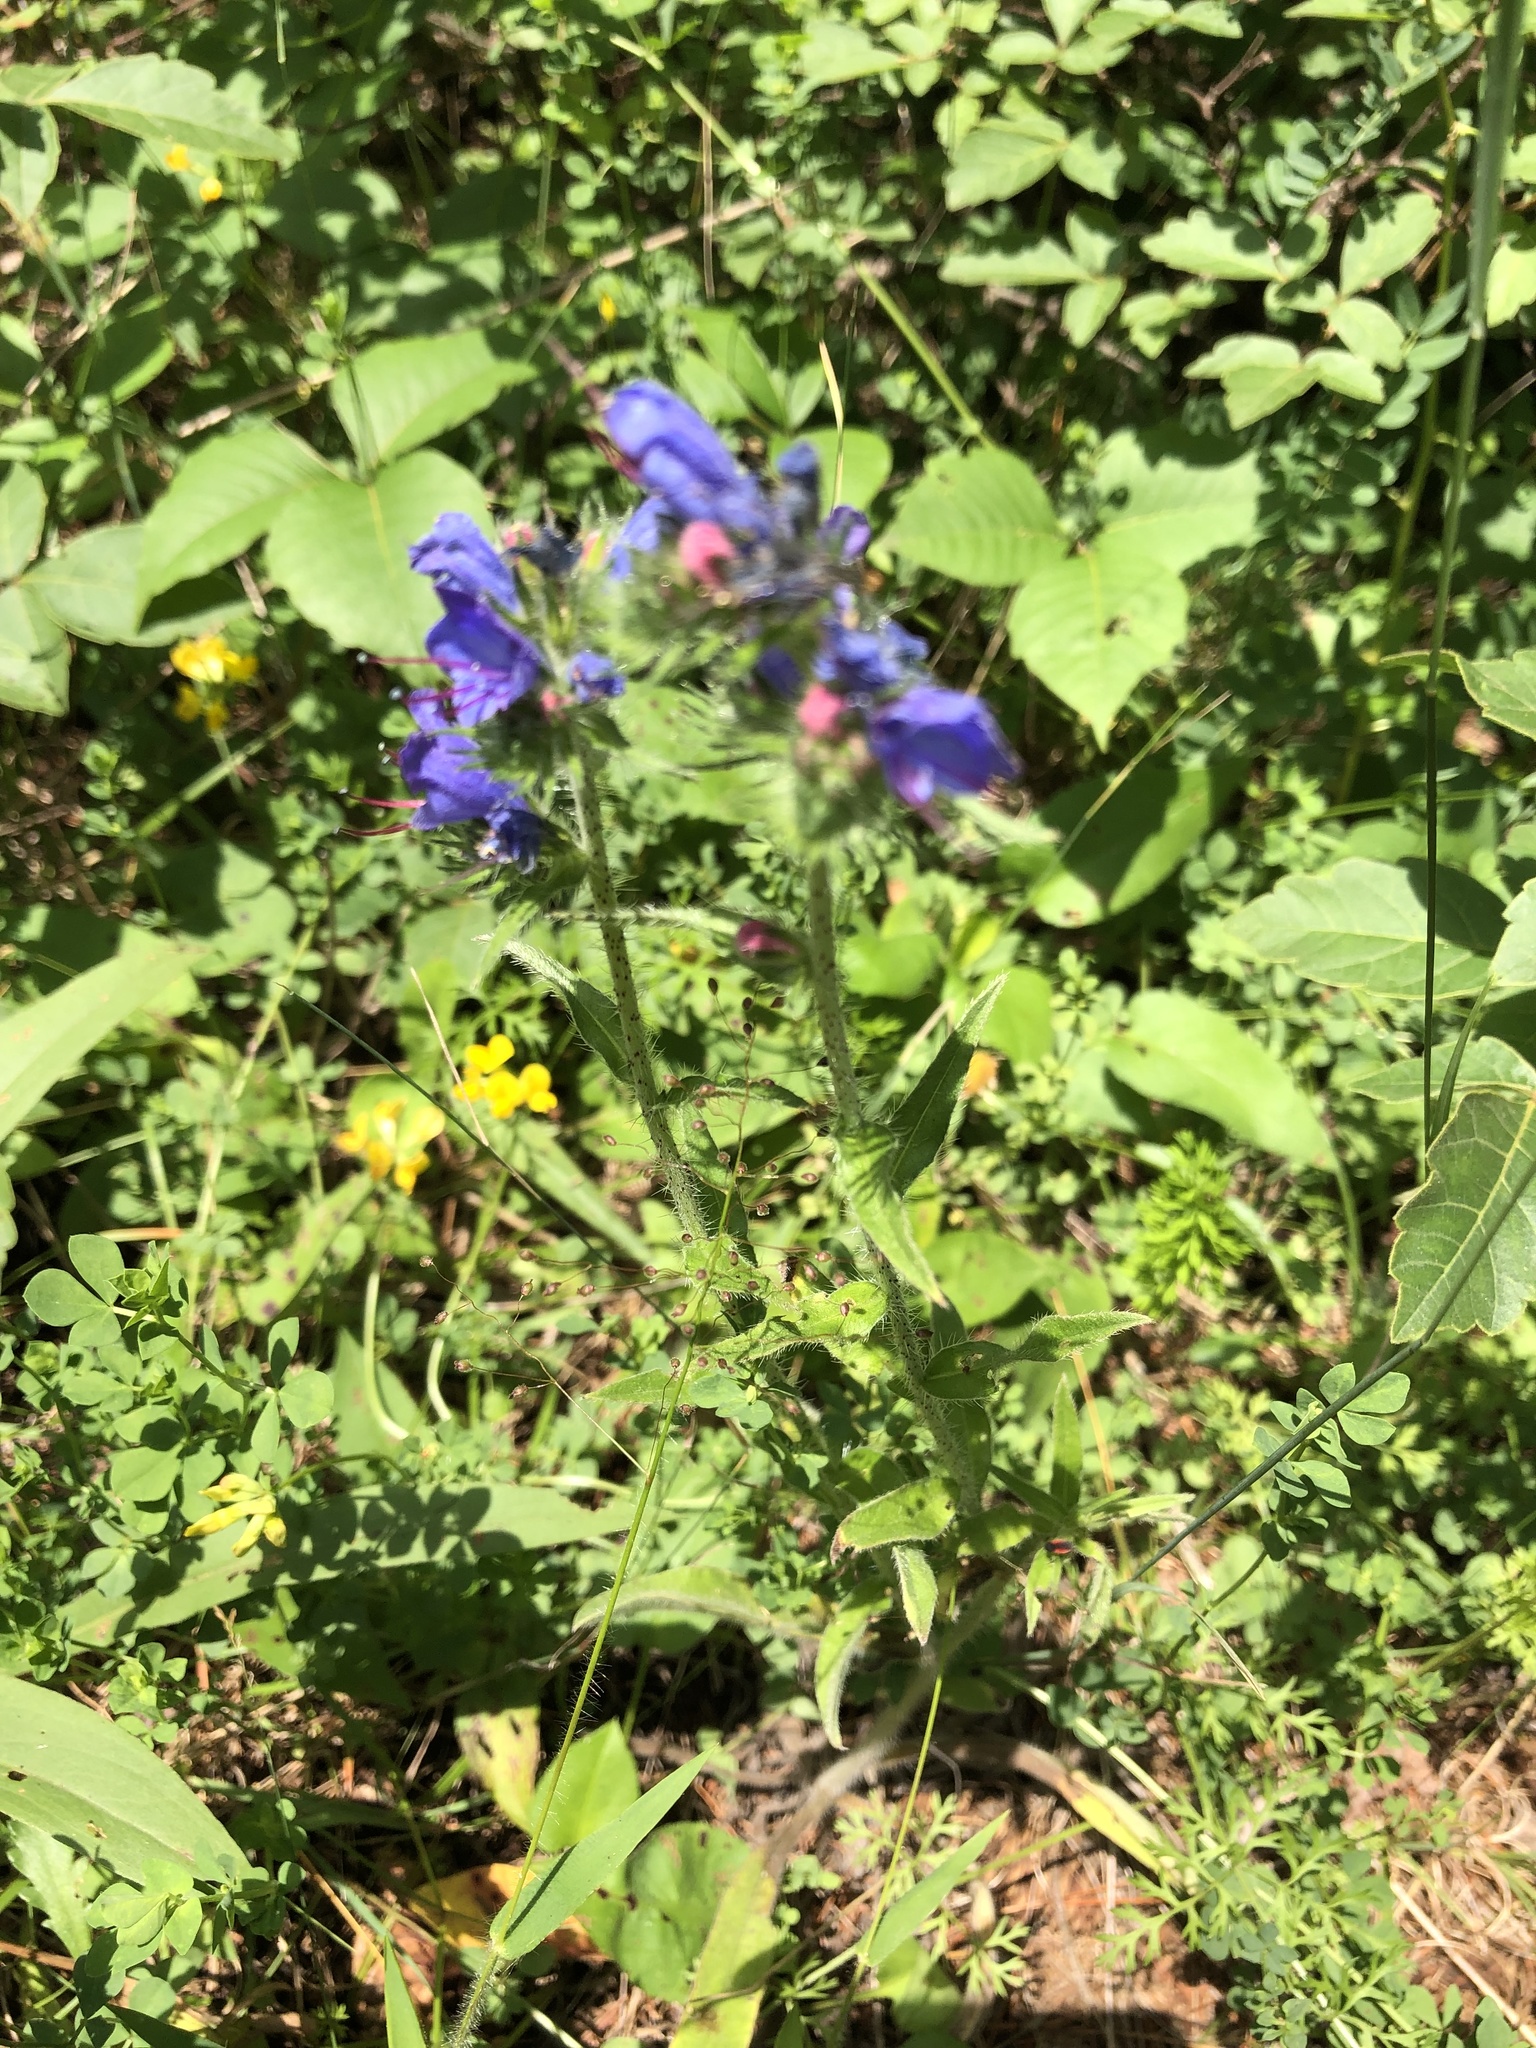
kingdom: Plantae
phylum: Tracheophyta
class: Magnoliopsida
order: Boraginales
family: Boraginaceae
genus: Echium
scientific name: Echium vulgare
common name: Common viper's bugloss
